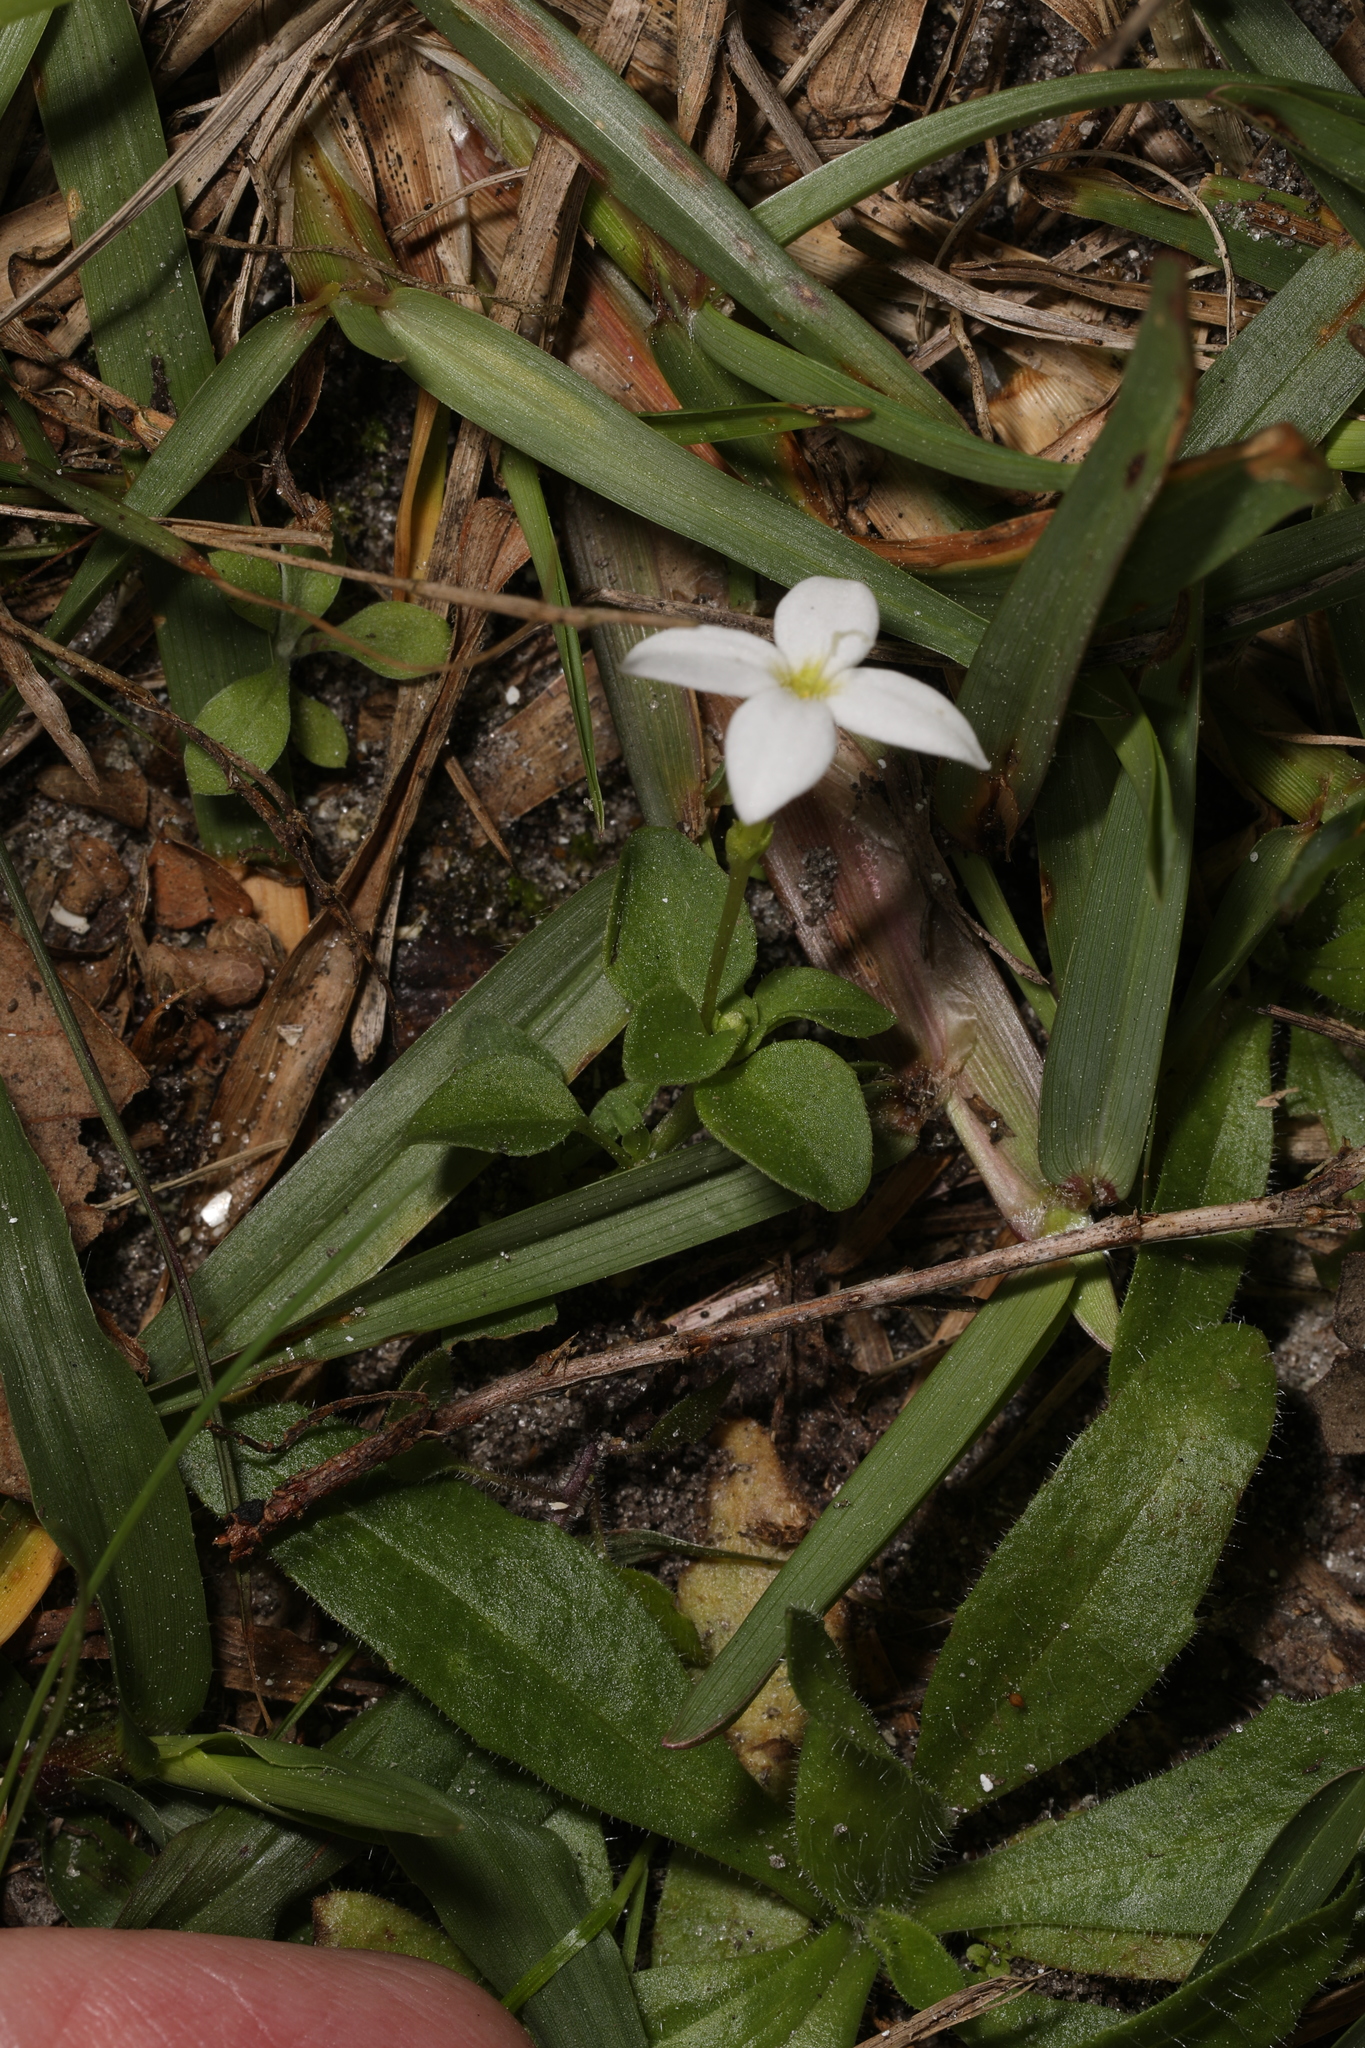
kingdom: Plantae
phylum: Tracheophyta
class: Magnoliopsida
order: Gentianales
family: Rubiaceae
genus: Houstonia
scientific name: Houstonia procumbens
